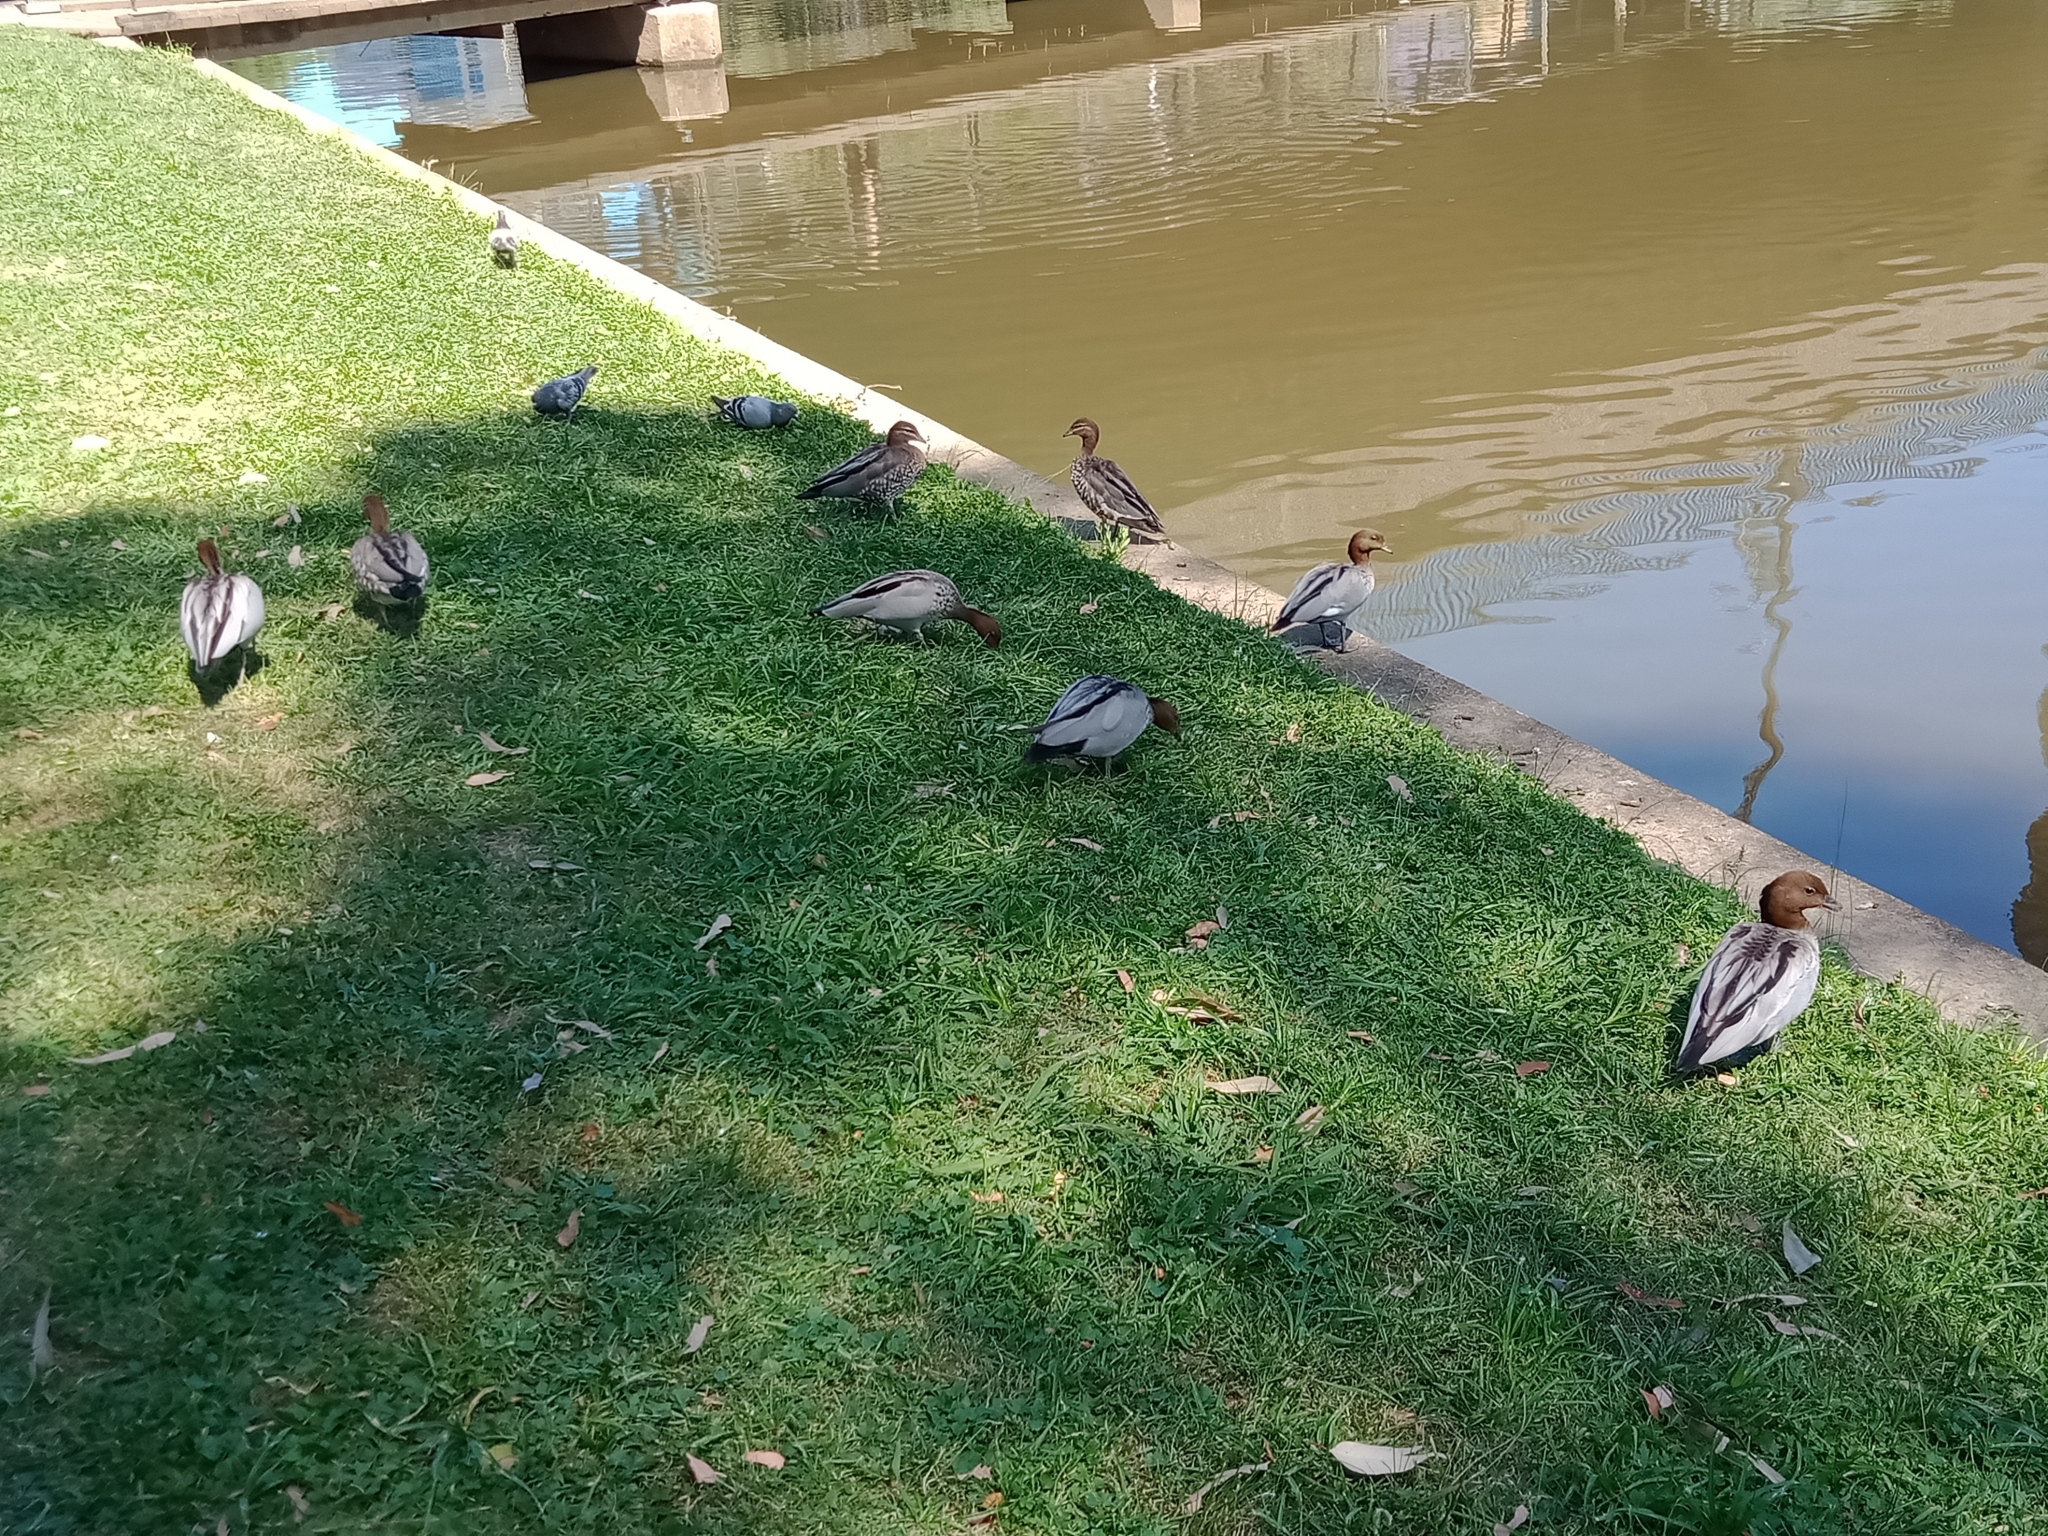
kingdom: Animalia
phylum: Chordata
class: Aves
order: Anseriformes
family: Anatidae
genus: Chenonetta
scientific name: Chenonetta jubata
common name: Maned duck
